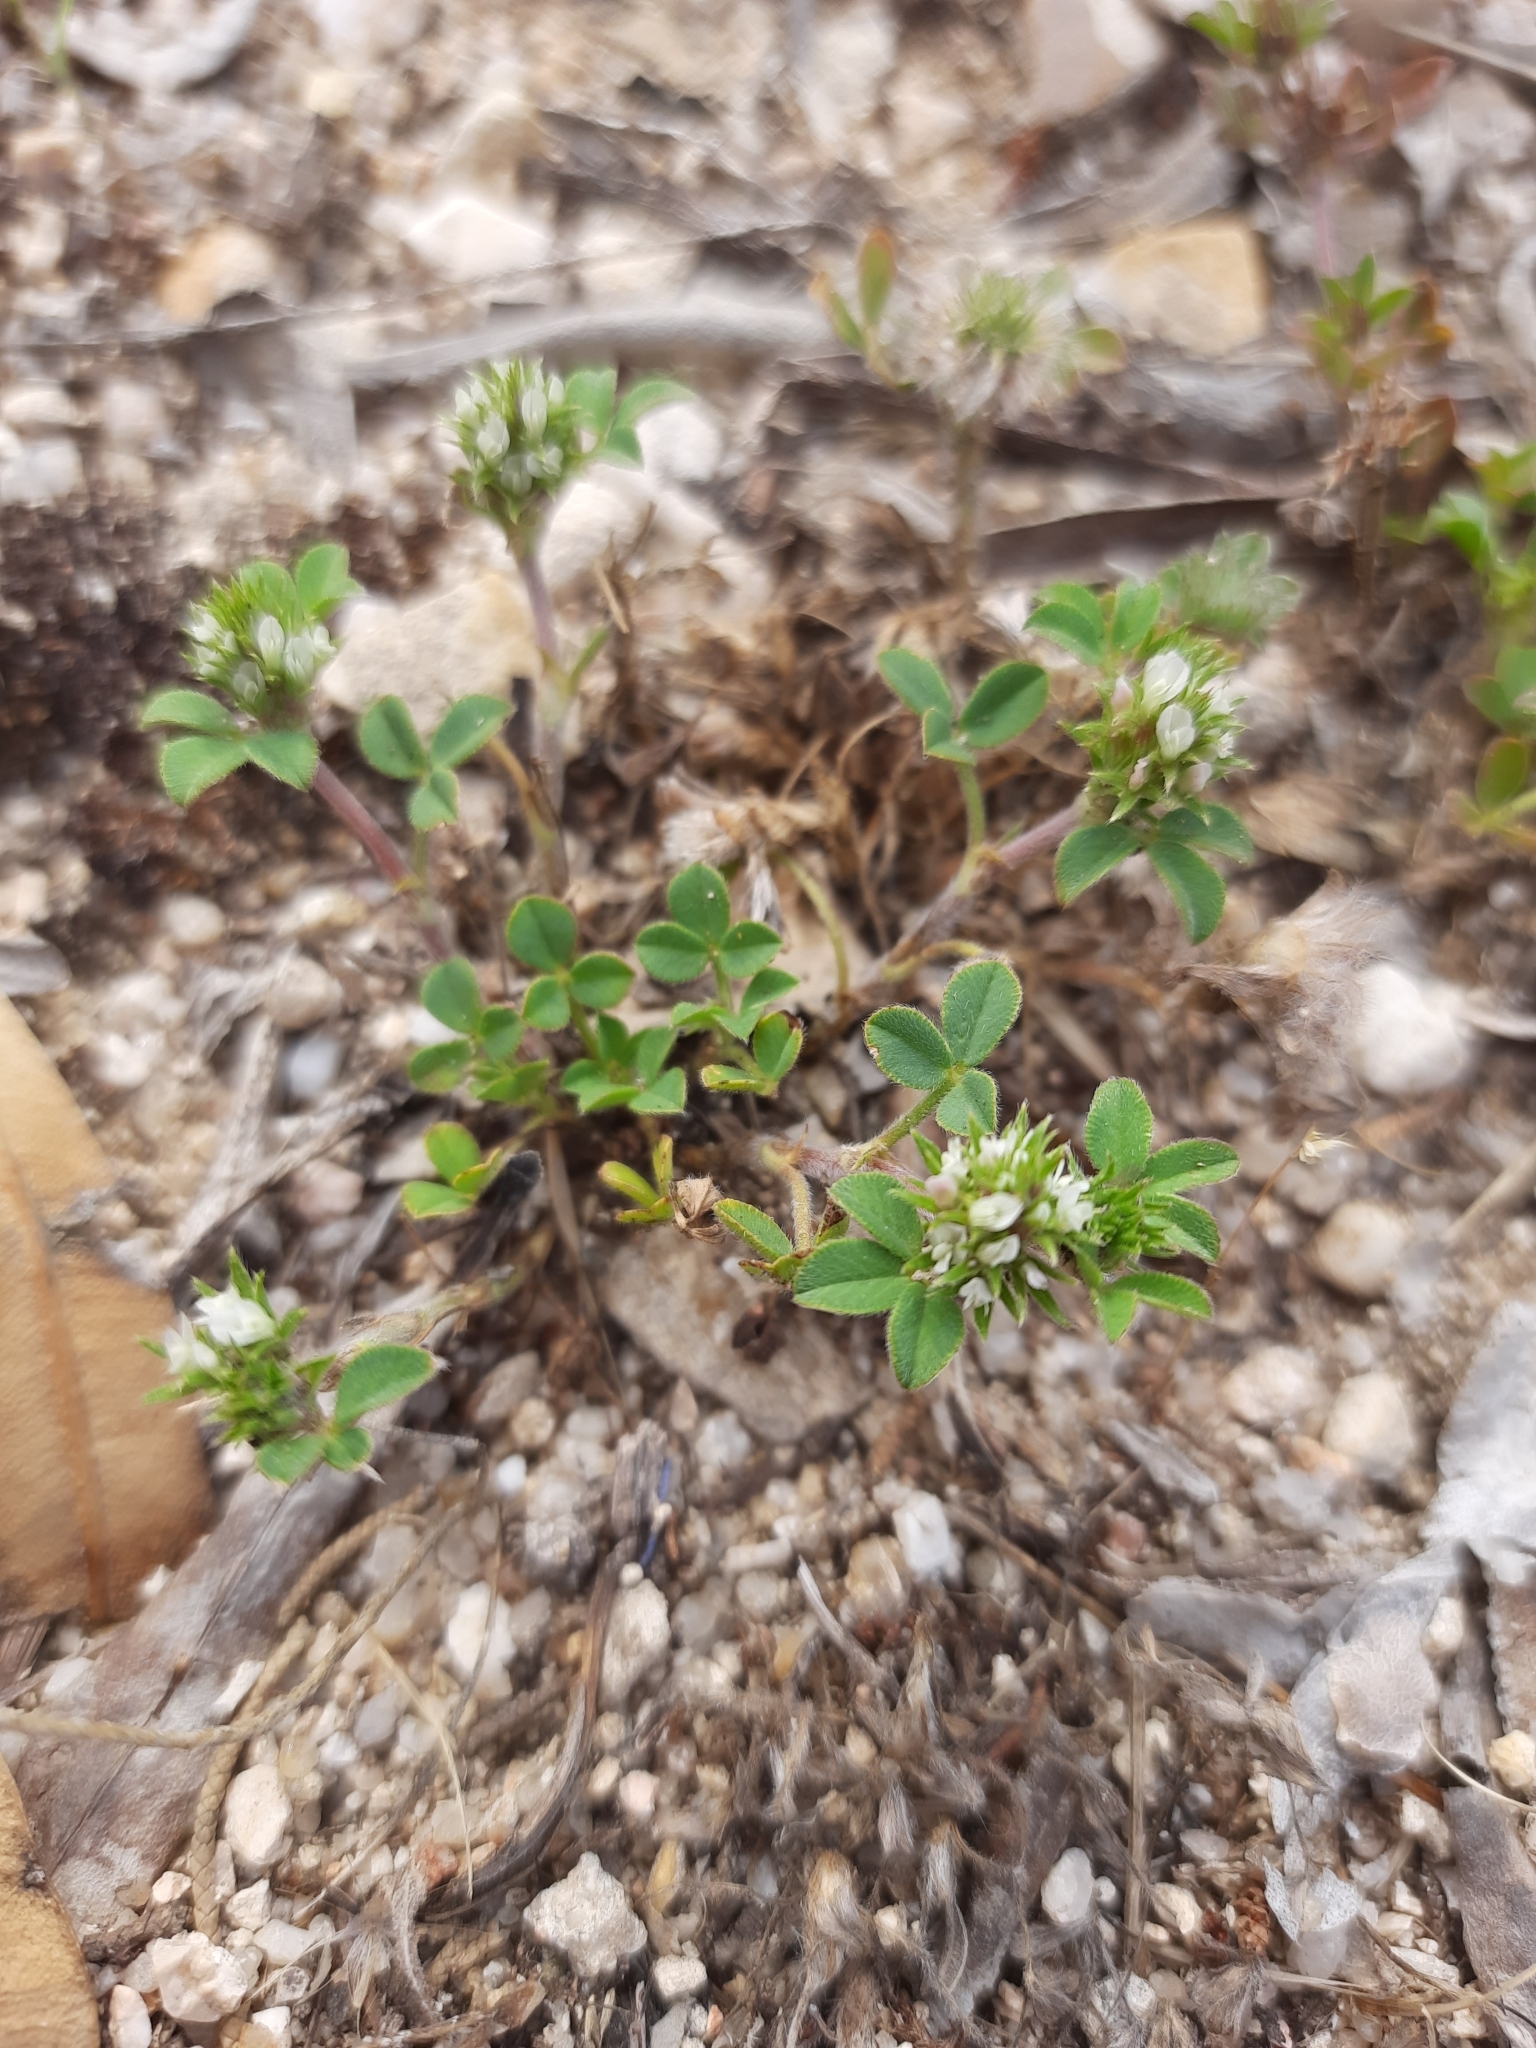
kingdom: Plantae
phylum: Tracheophyta
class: Magnoliopsida
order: Fabales
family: Fabaceae
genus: Trifolium
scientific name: Trifolium scabrum
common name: Rough clover
